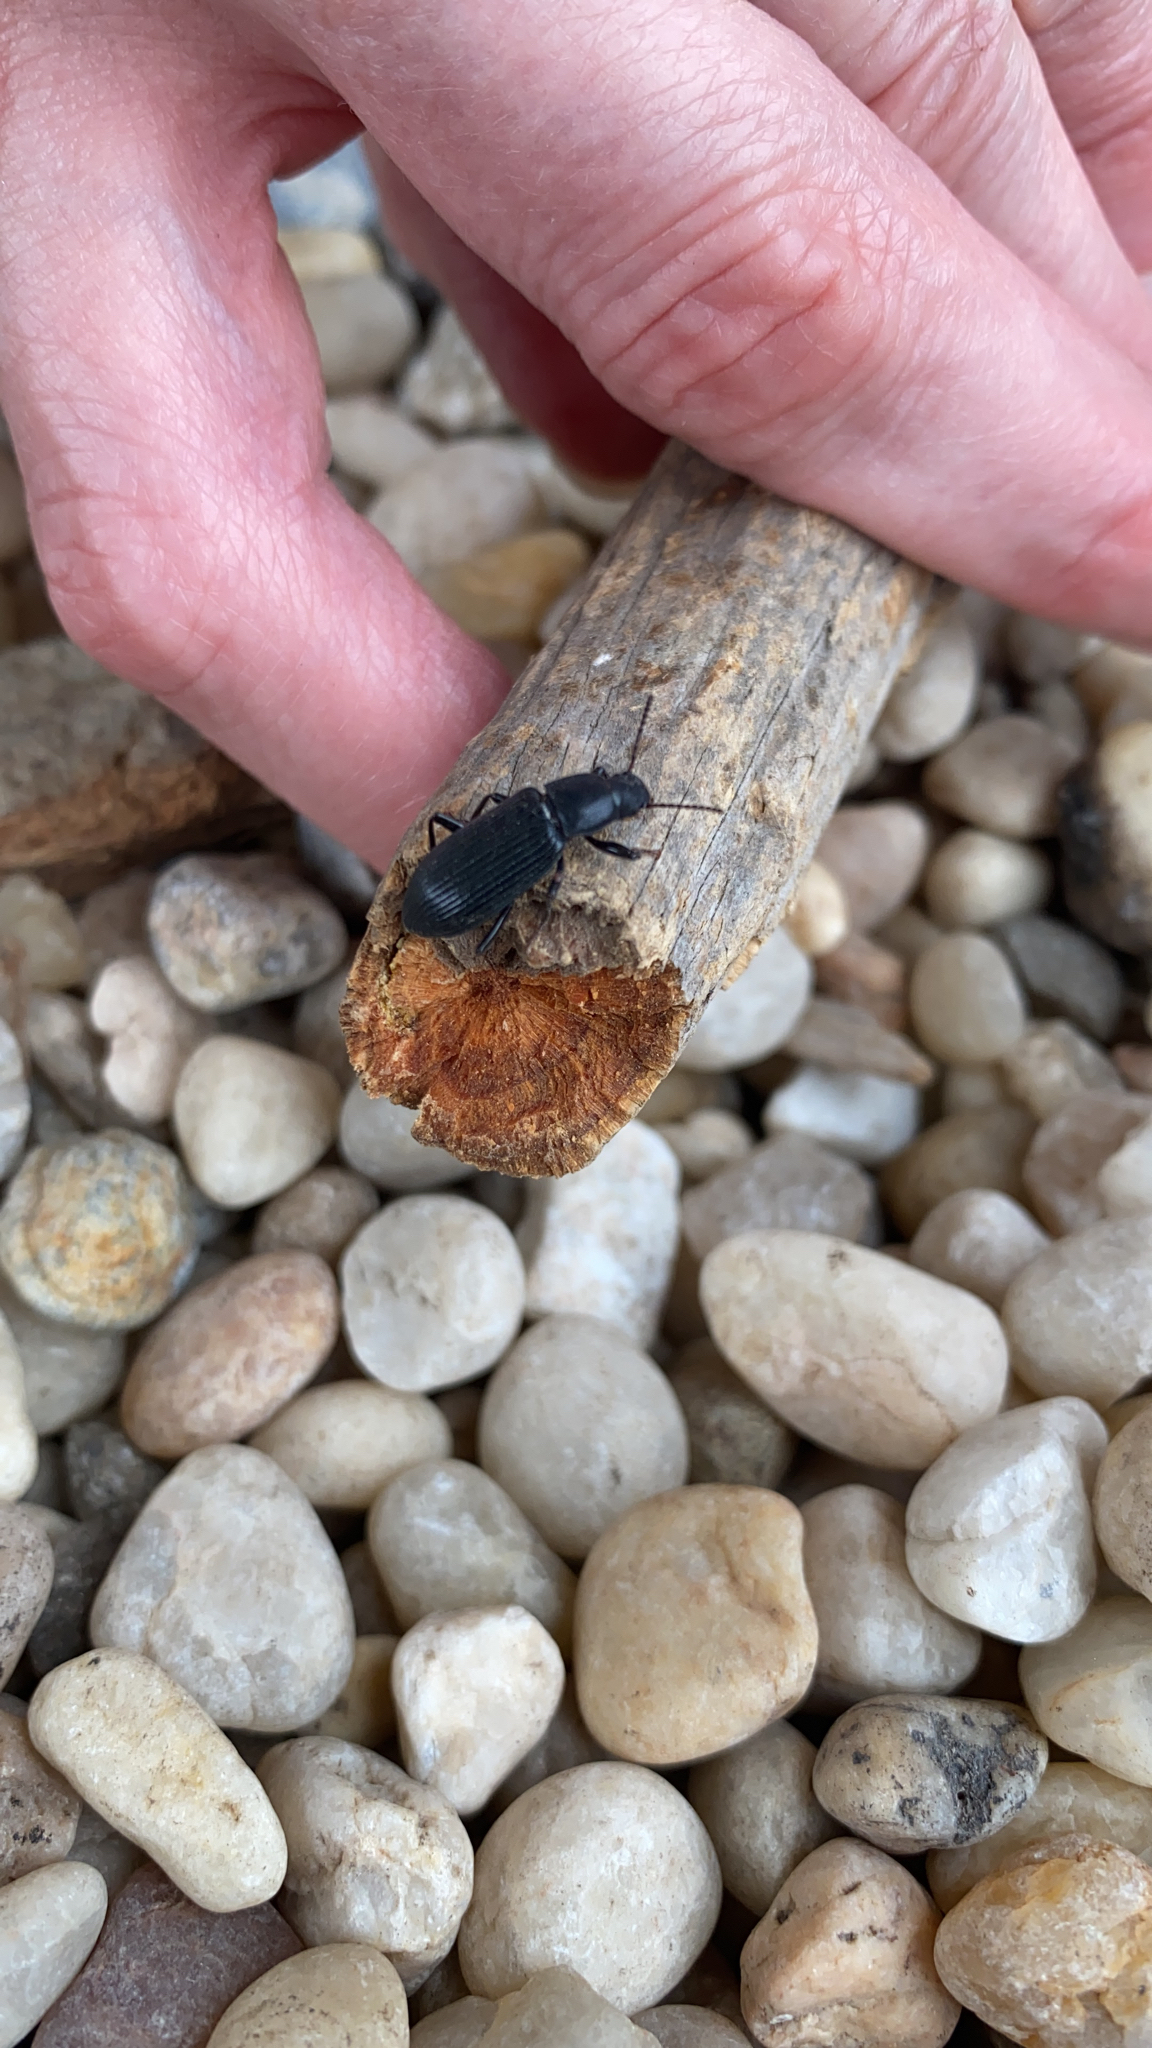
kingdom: Animalia
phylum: Arthropoda
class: Insecta
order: Coleoptera
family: Tenebrionidae
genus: Xylopinus
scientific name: Xylopinus saperdoides
